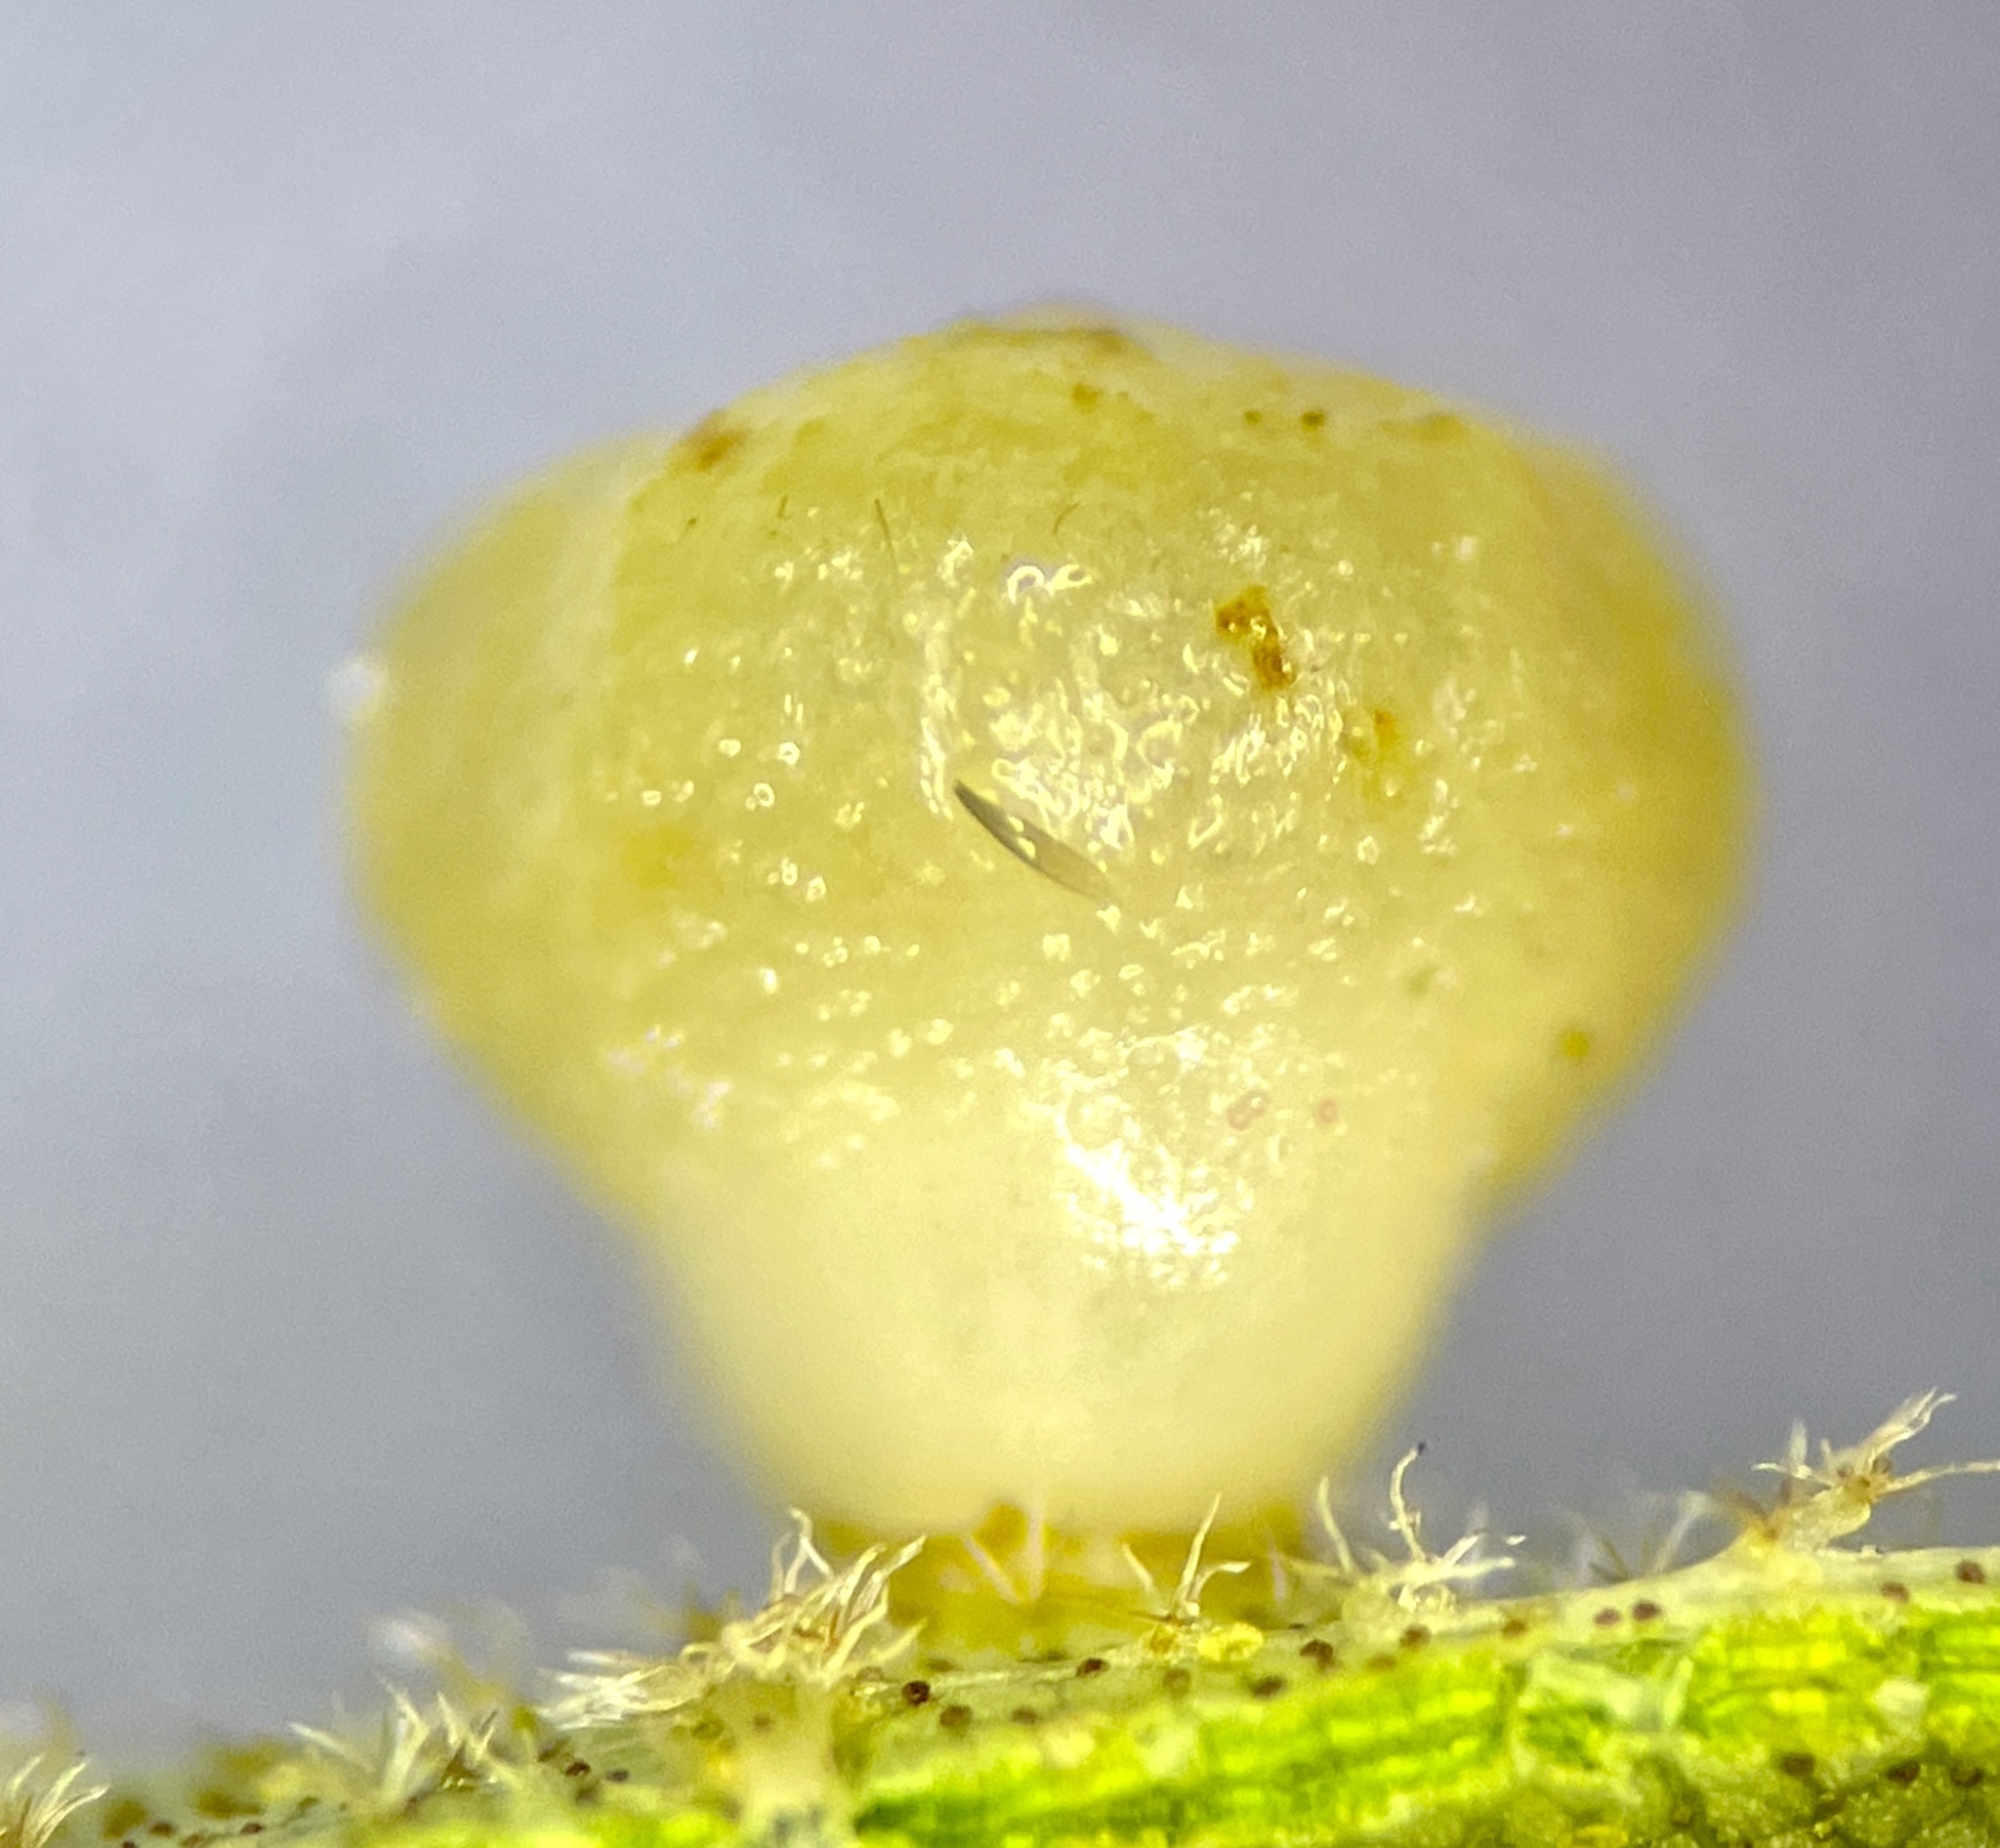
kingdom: Animalia
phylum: Arthropoda
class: Insecta
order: Diptera
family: Cecidomyiidae
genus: Caryomyia
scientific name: Caryomyia flaticrustum
